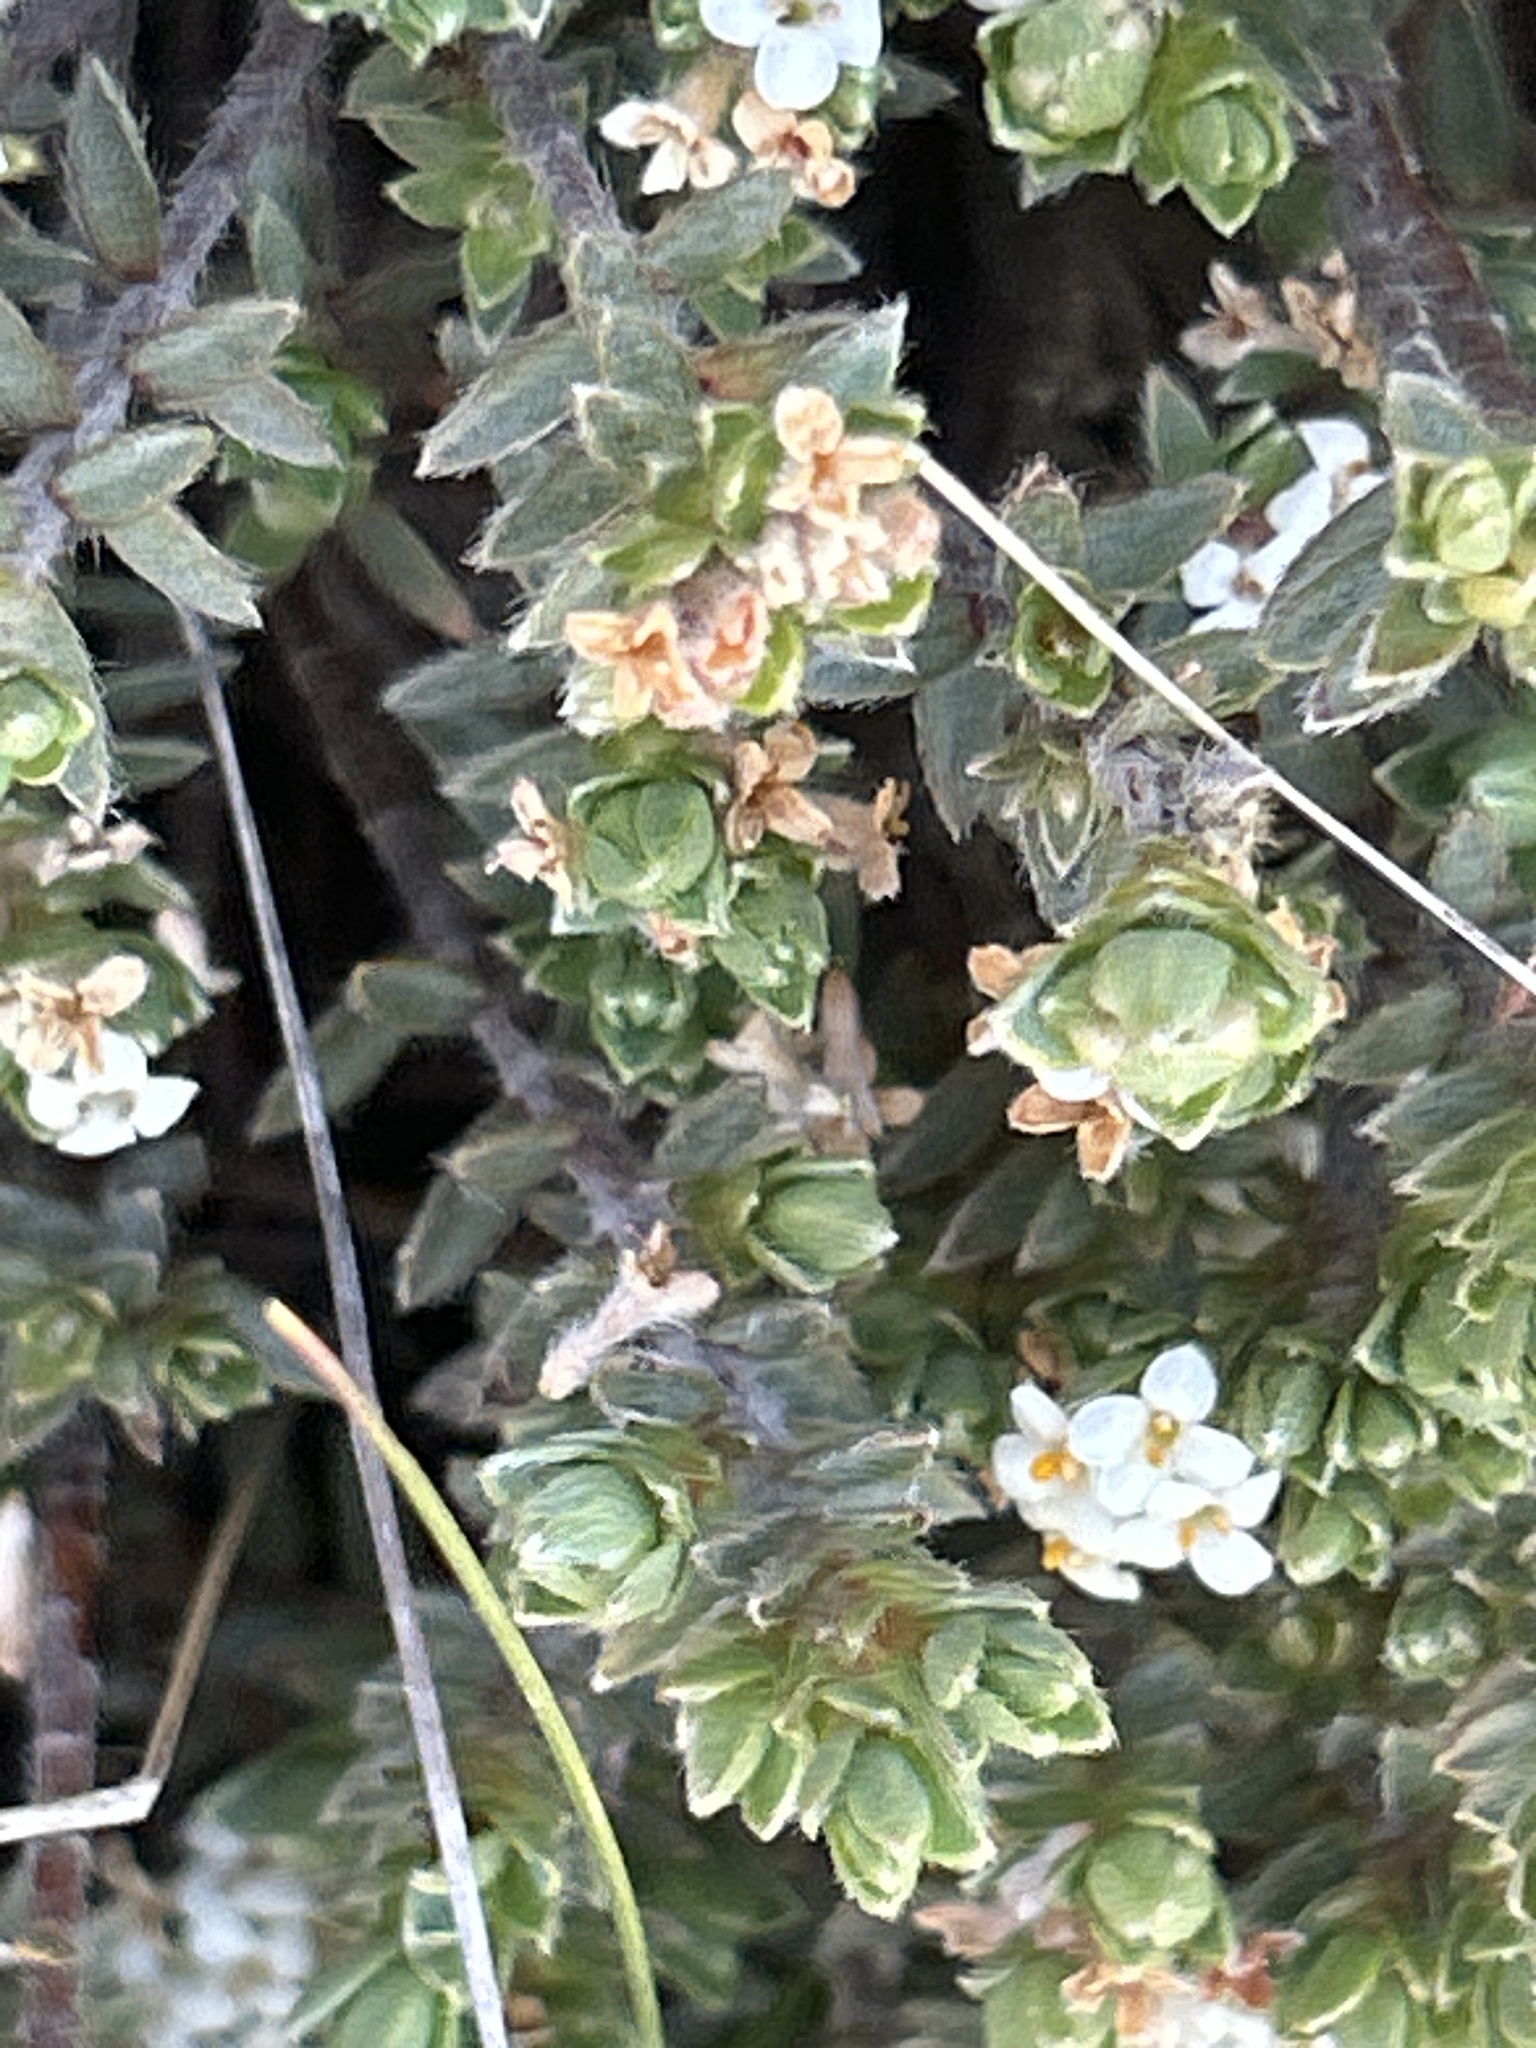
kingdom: Plantae
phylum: Tracheophyta
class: Magnoliopsida
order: Malvales
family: Thymelaeaceae
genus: Pimelea
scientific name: Pimelea mesoa
